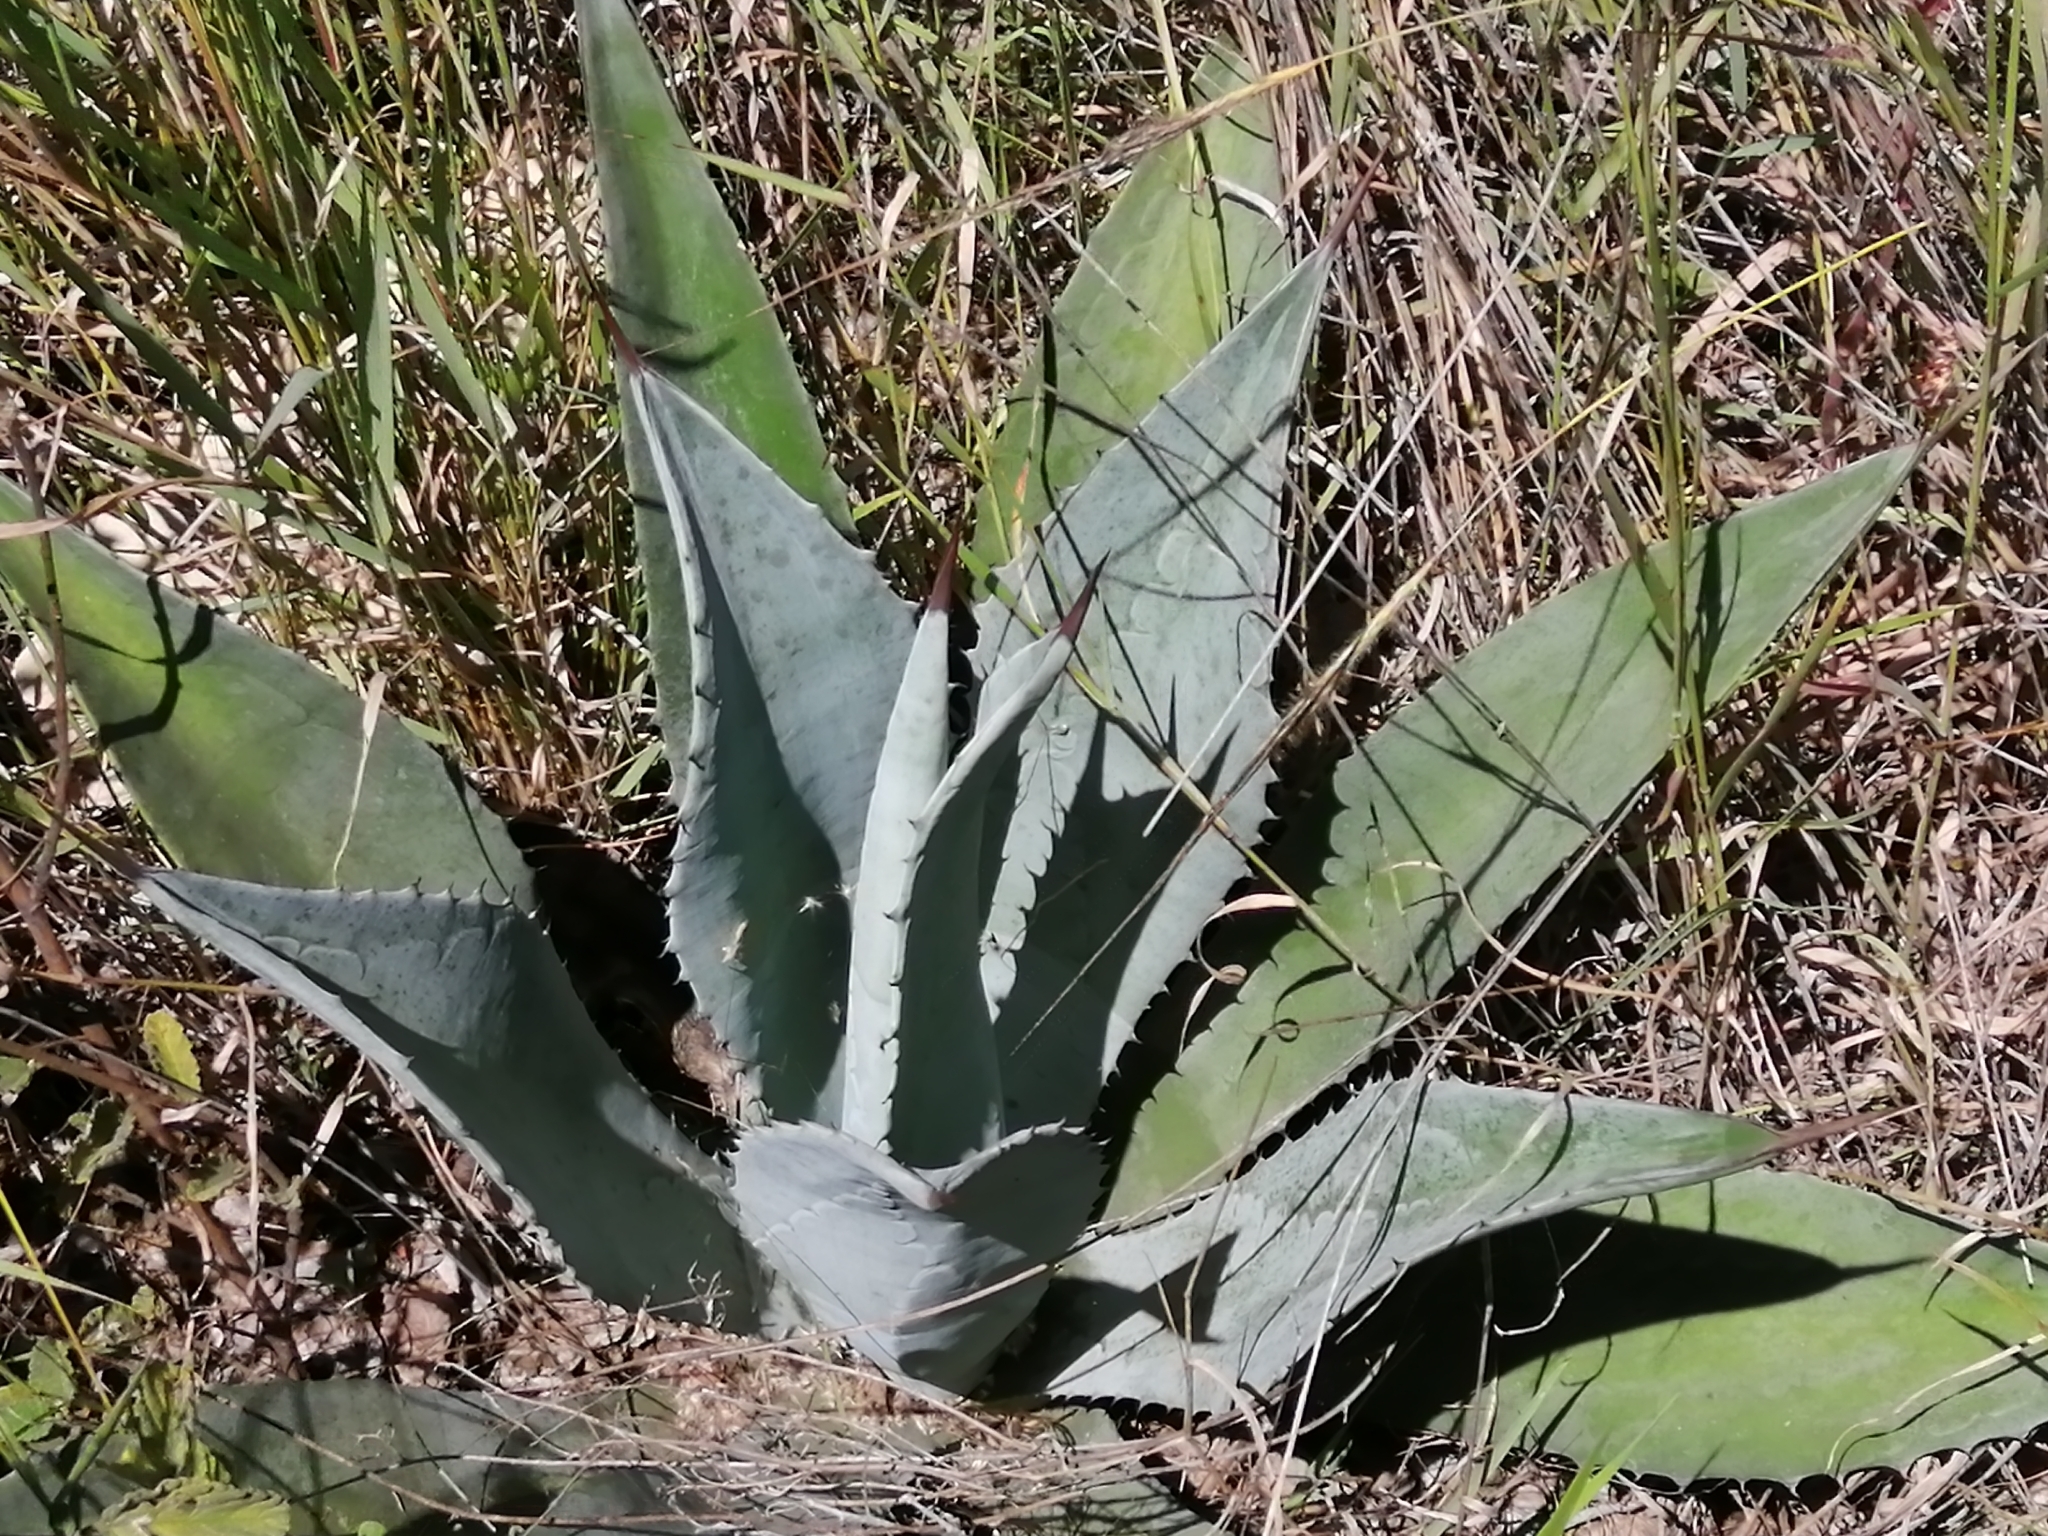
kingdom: Plantae
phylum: Tracheophyta
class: Liliopsida
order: Asparagales
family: Asparagaceae
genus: Agave
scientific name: Agave americana
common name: Centuryplant
